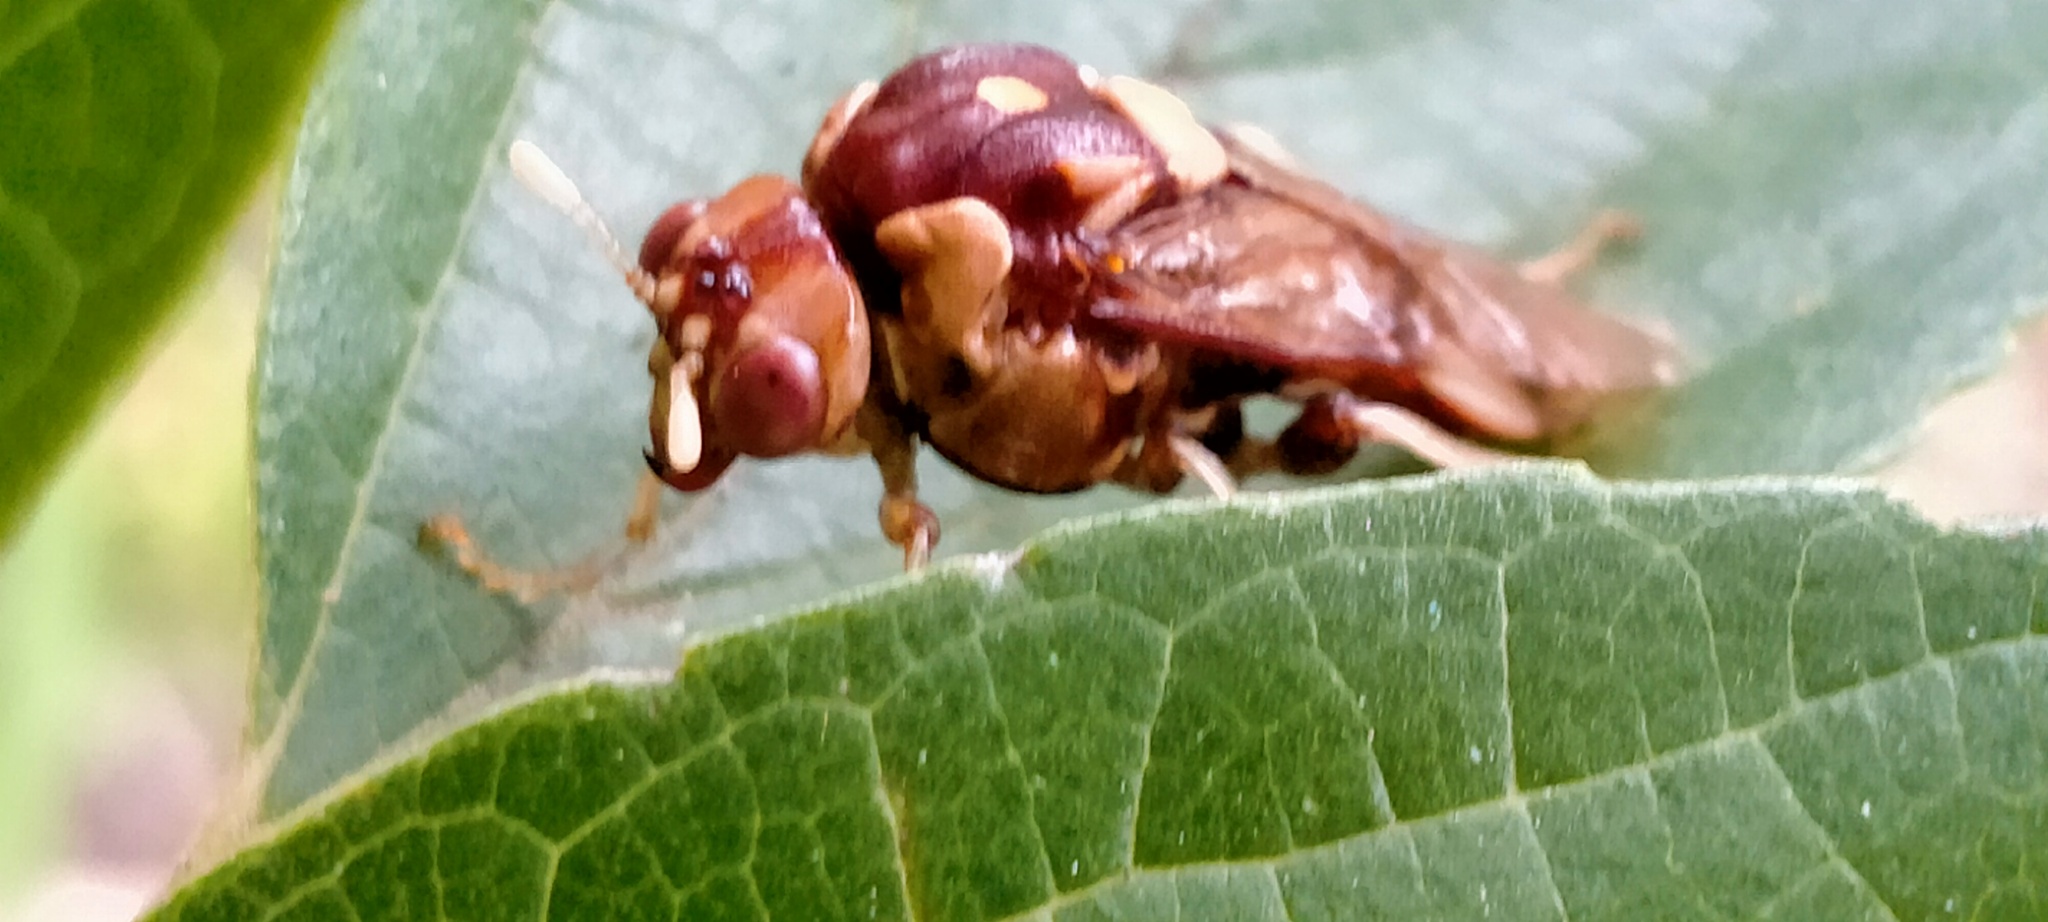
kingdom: Animalia
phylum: Arthropoda
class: Insecta
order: Hymenoptera
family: Pergidae
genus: Pergagrapta
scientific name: Pergagrapta polita
